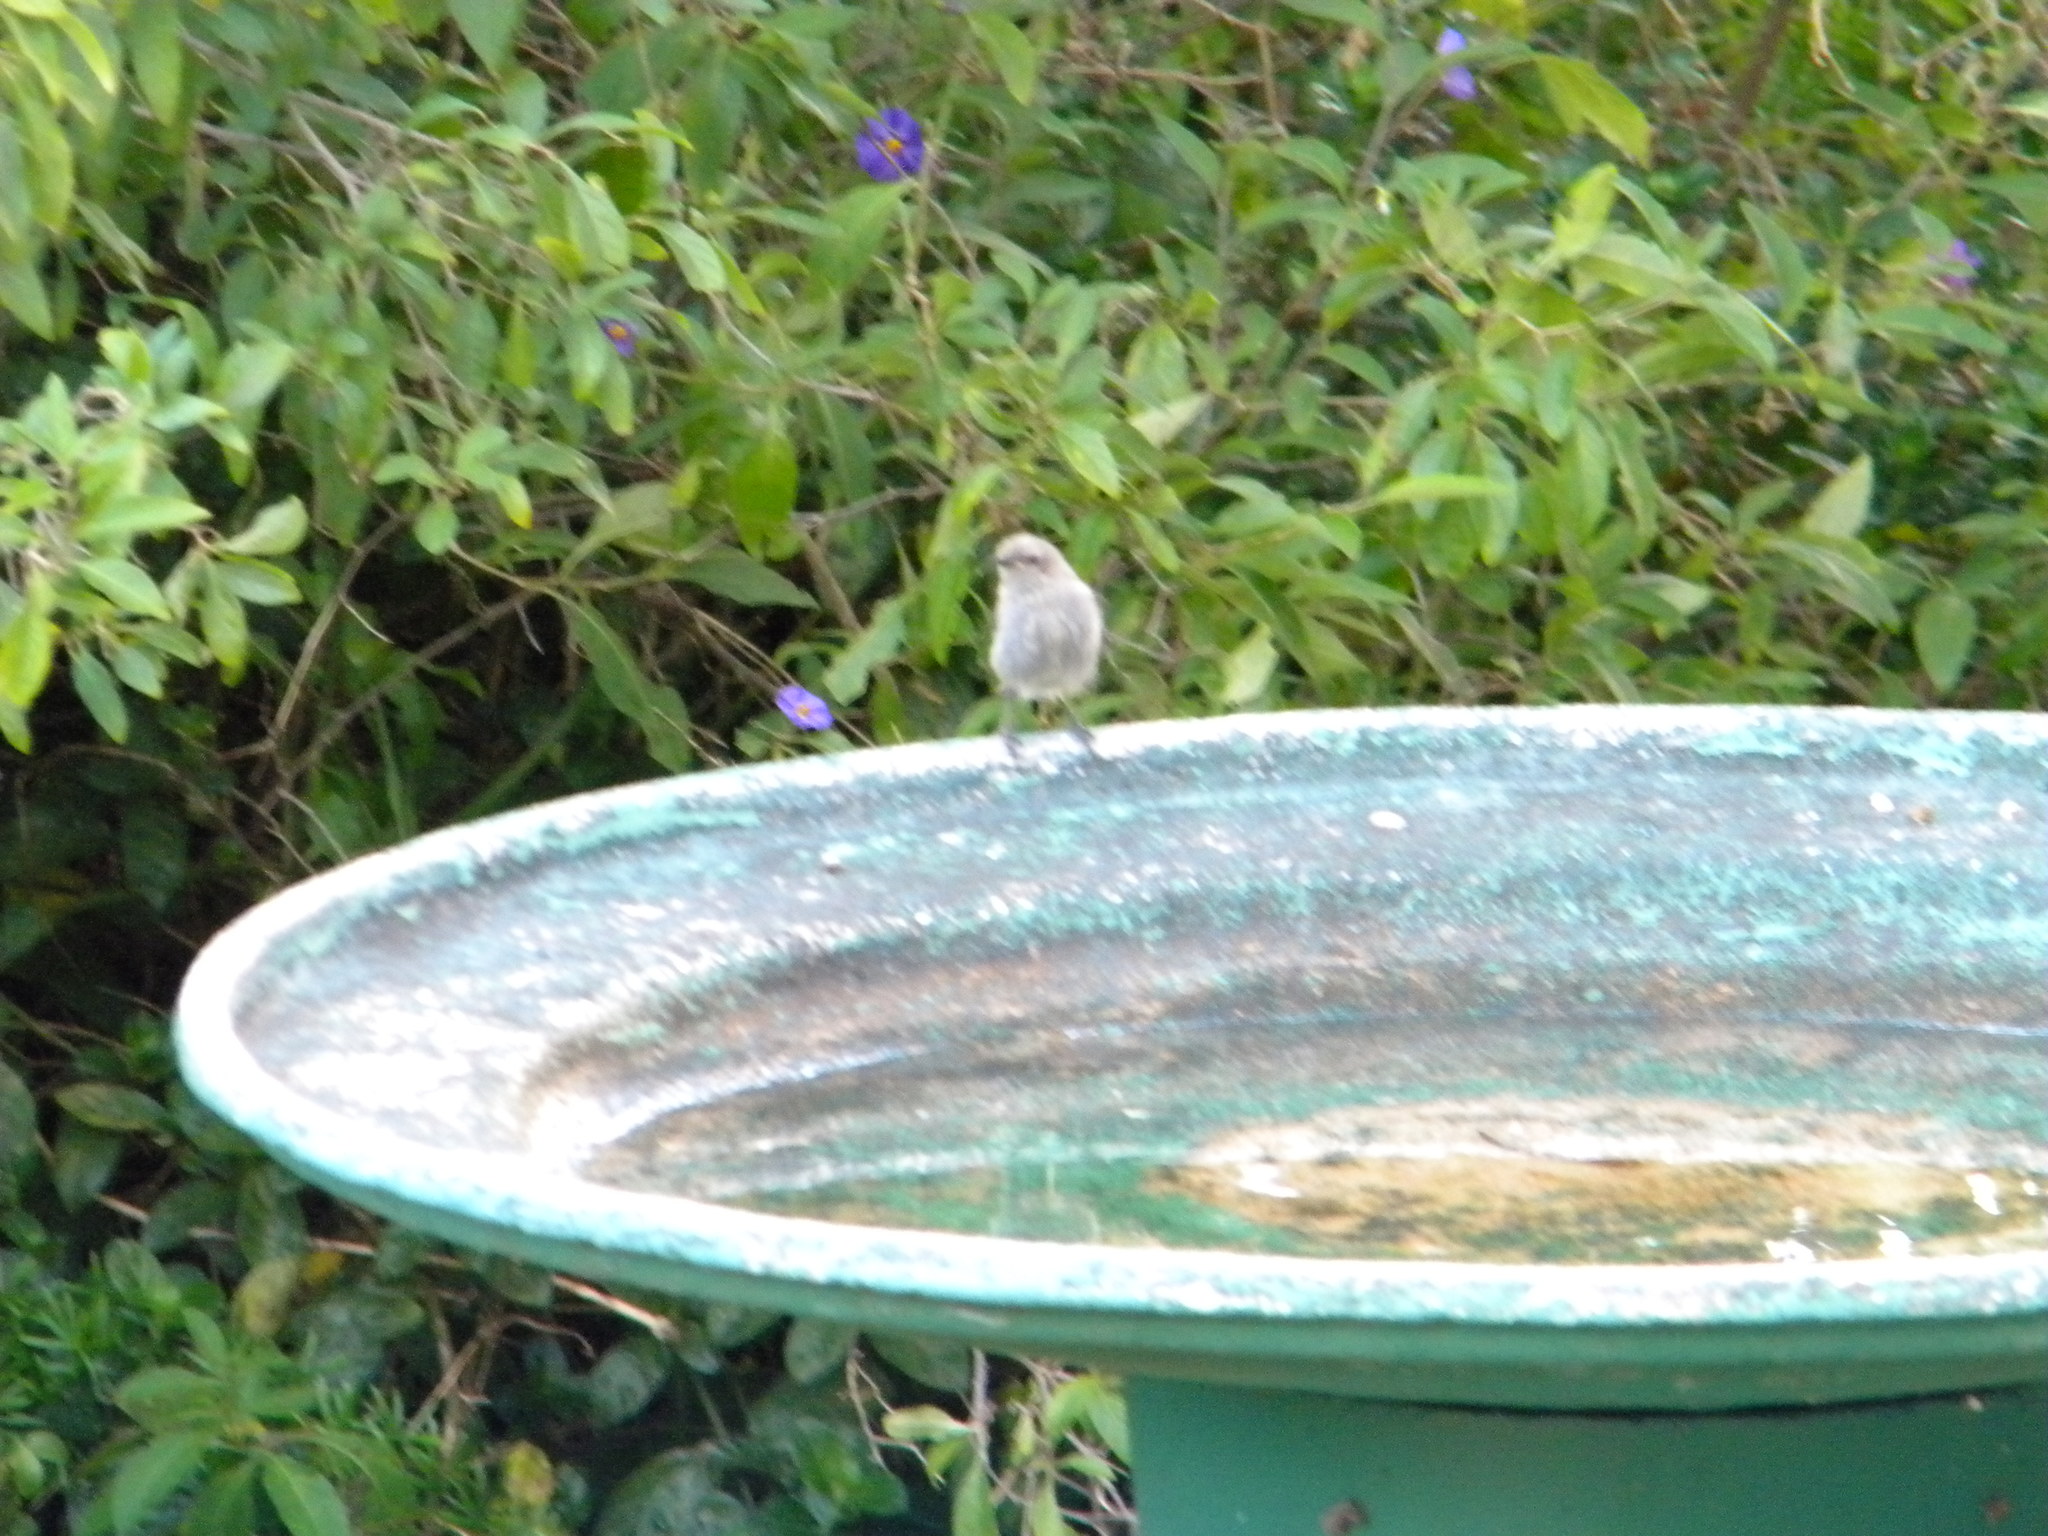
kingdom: Animalia
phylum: Chordata
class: Aves
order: Passeriformes
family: Nectariniidae
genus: Cinnyris
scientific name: Cinnyris chalybeus
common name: Southern double-collared sunbird
